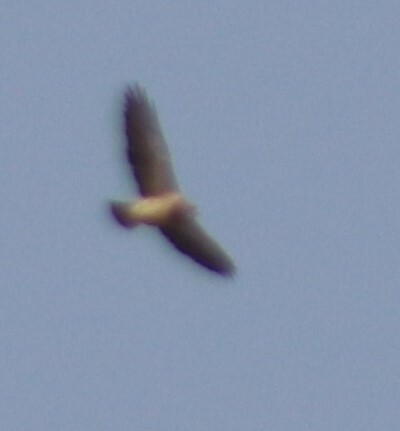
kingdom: Animalia
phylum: Chordata
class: Aves
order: Accipitriformes
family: Accipitridae
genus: Buteo
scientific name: Buteo swainsoni
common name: Swainson's hawk
